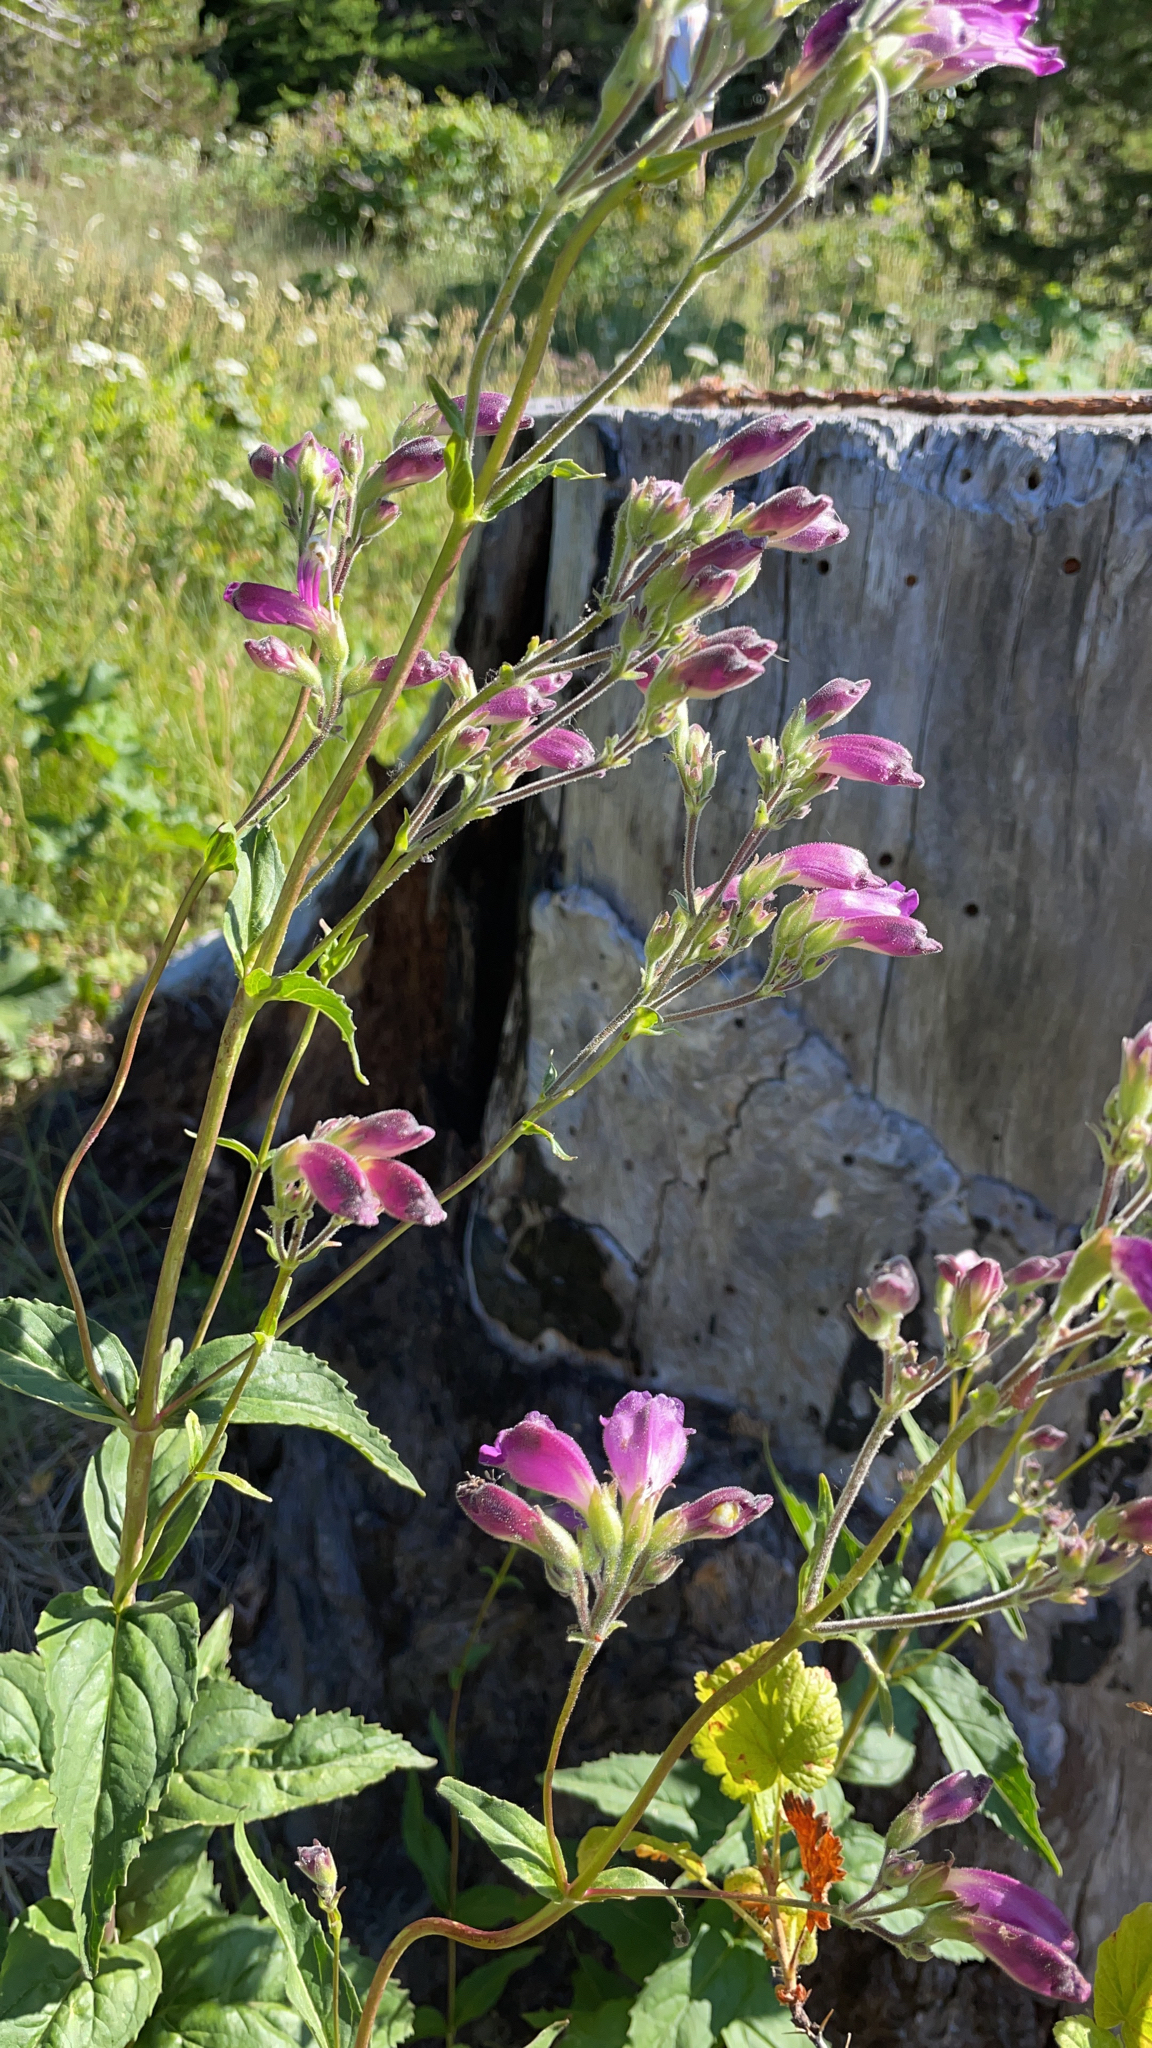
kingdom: Plantae
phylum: Tracheophyta
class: Magnoliopsida
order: Lamiales
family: Plantaginaceae
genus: Nothochelone
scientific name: Nothochelone nemorosa
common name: Woodland beardtongue
